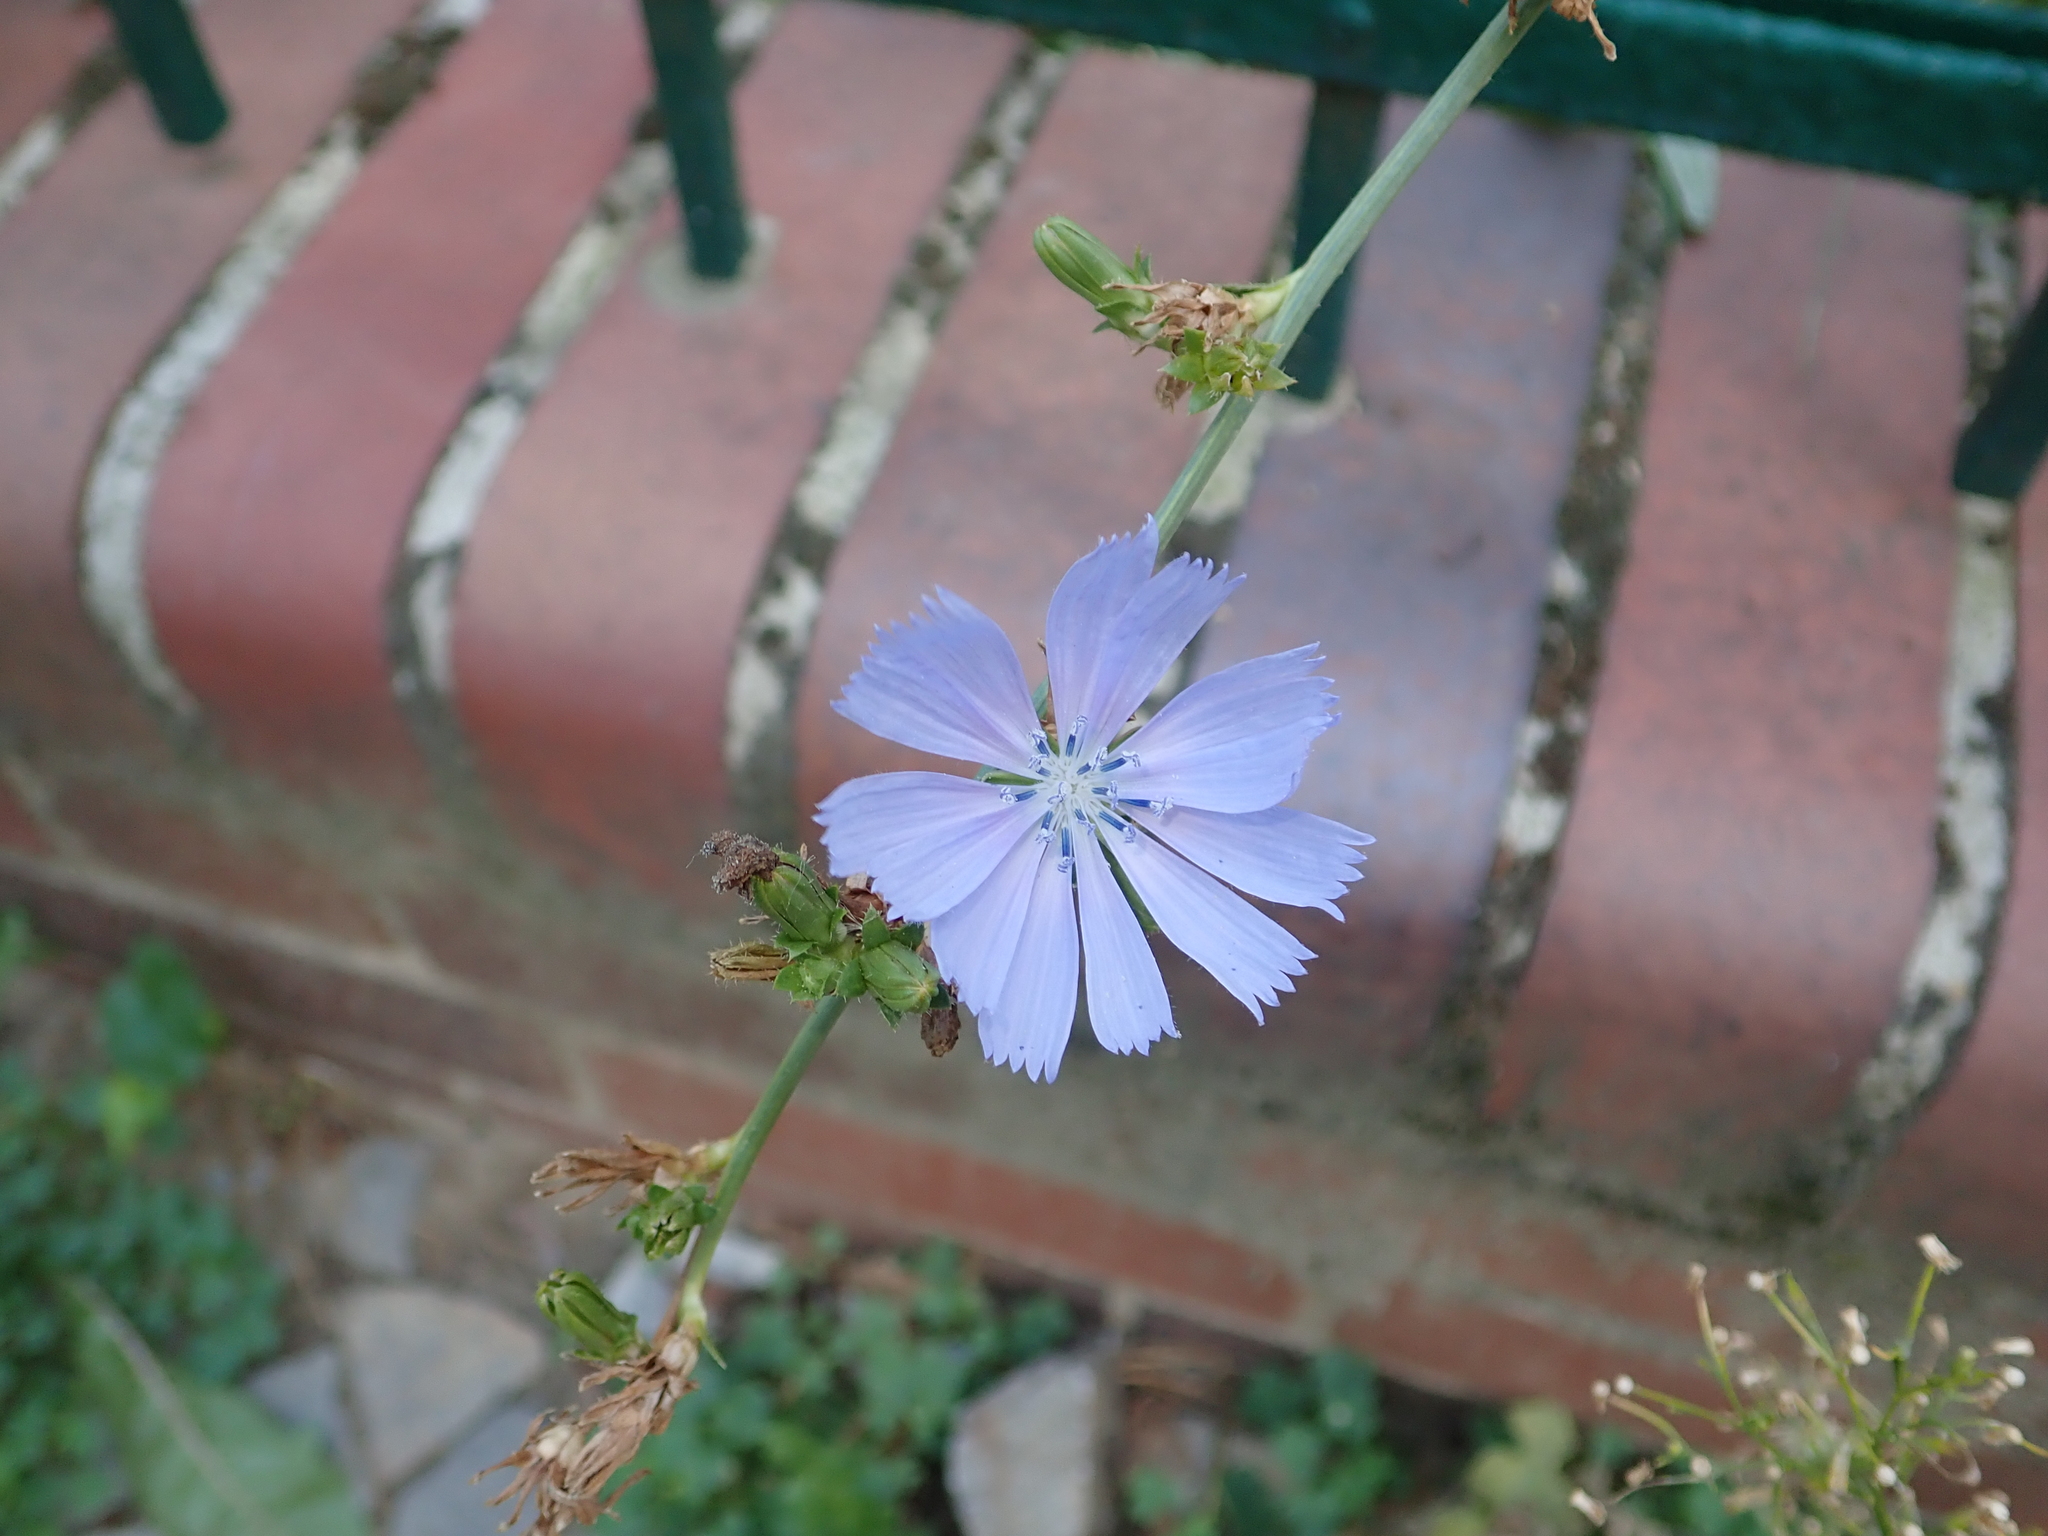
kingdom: Plantae
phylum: Tracheophyta
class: Magnoliopsida
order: Asterales
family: Asteraceae
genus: Cichorium
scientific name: Cichorium intybus
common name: Chicory
